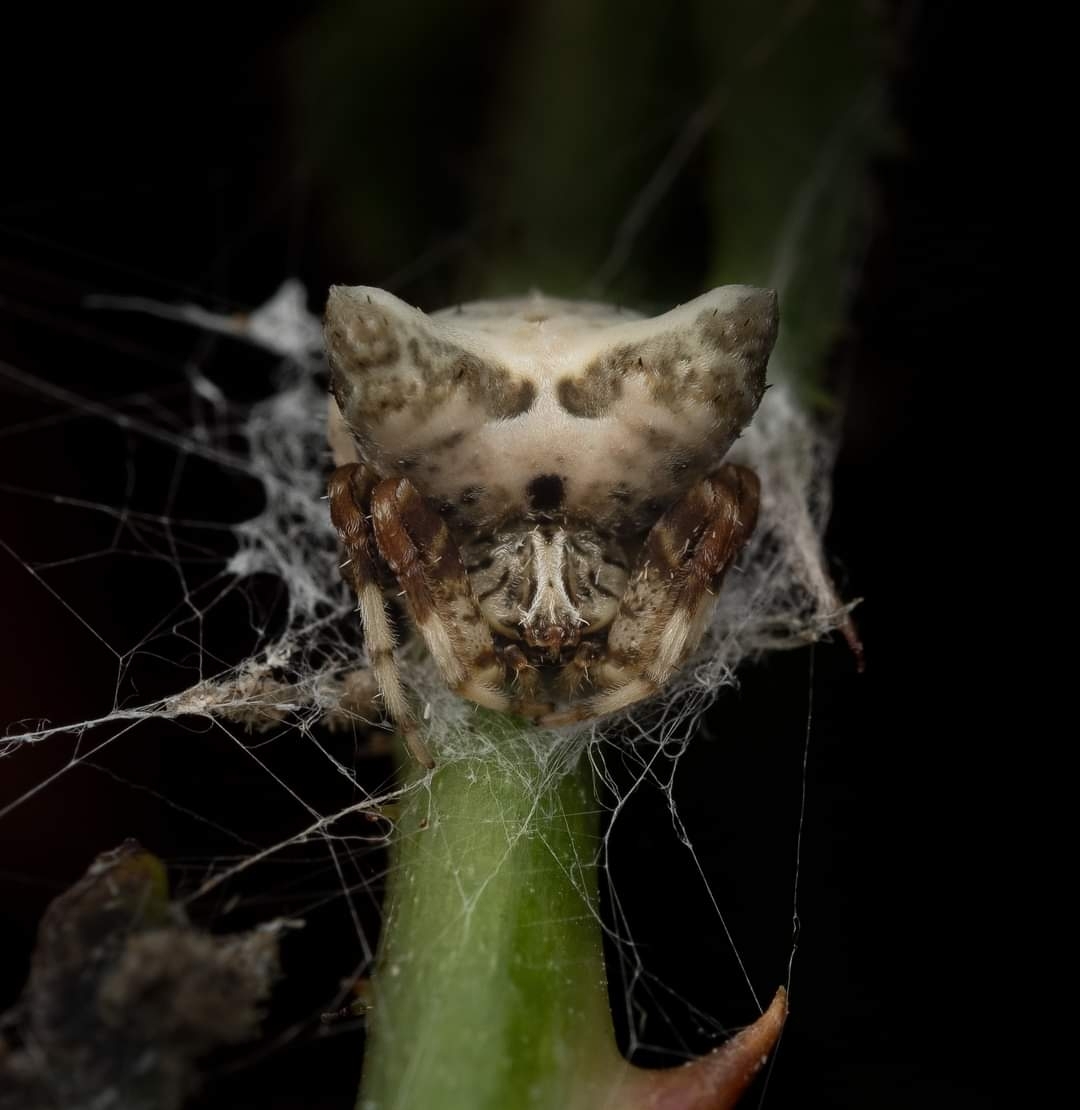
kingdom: Animalia
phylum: Arthropoda
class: Arachnida
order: Araneae
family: Araneidae
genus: Celaenia
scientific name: Celaenia olivacea
